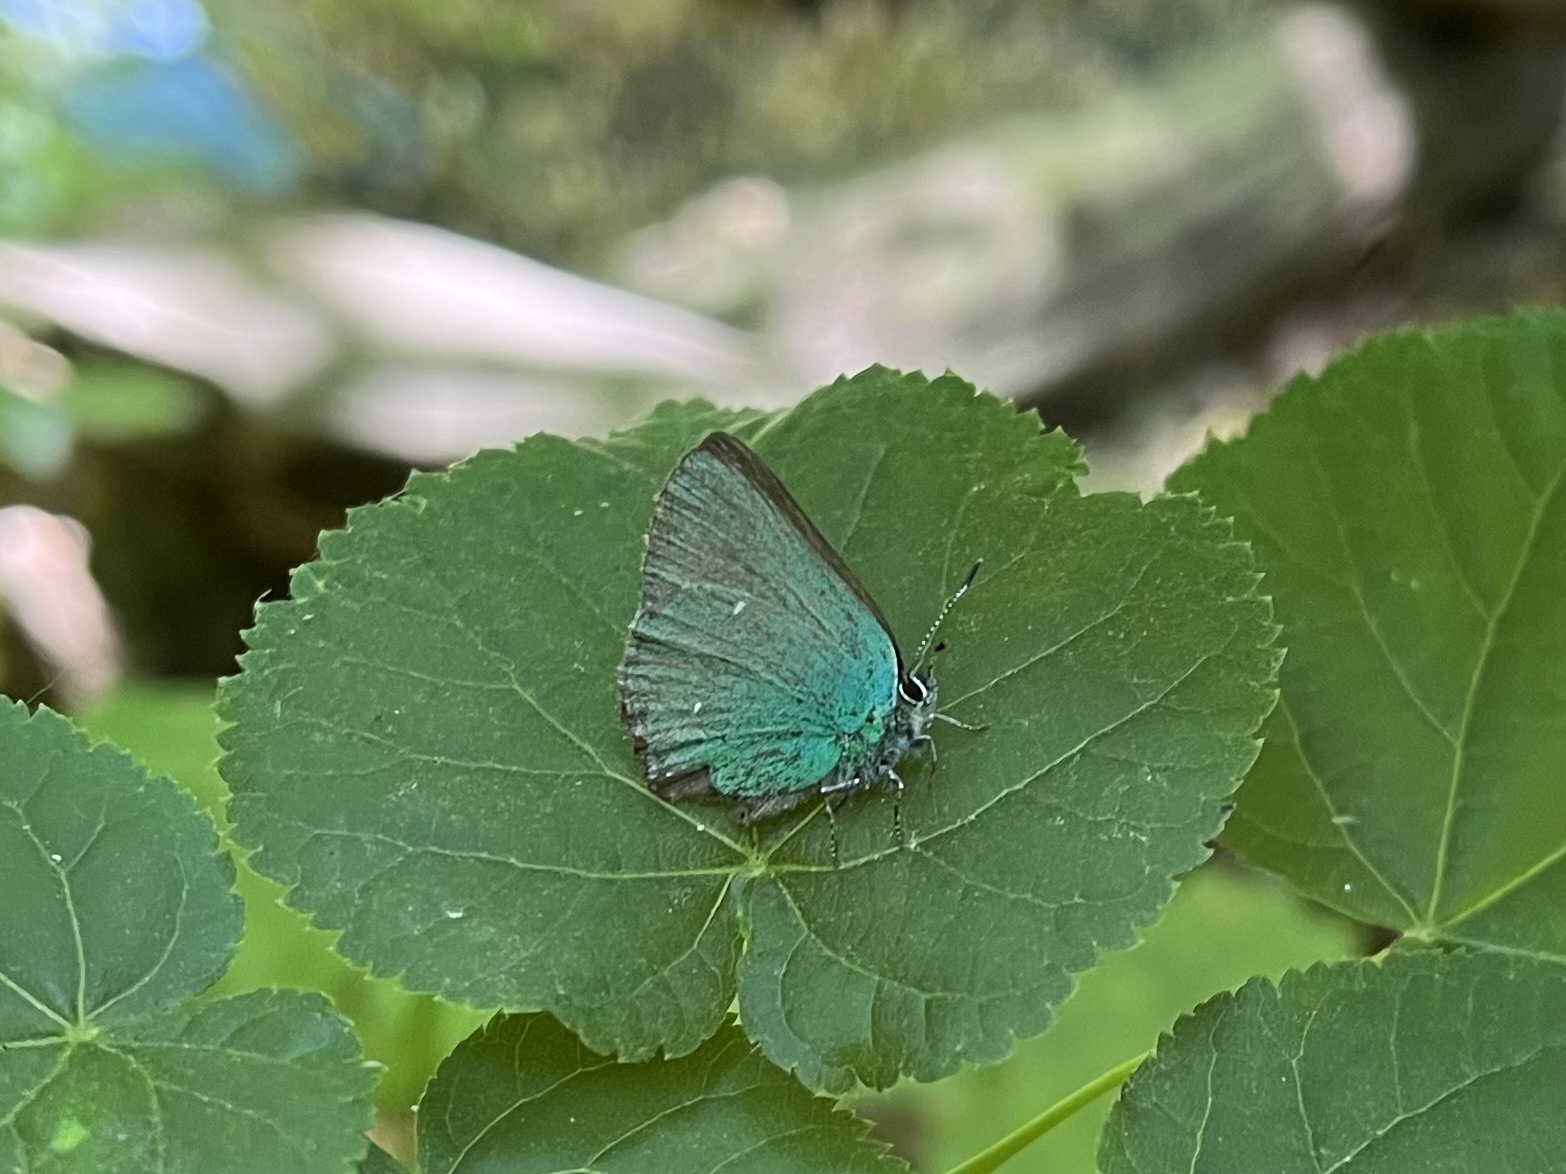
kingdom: Animalia
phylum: Arthropoda
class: Insecta
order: Lepidoptera
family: Lycaenidae
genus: Callophrys
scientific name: Callophrys rubi
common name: Green hairstreak
